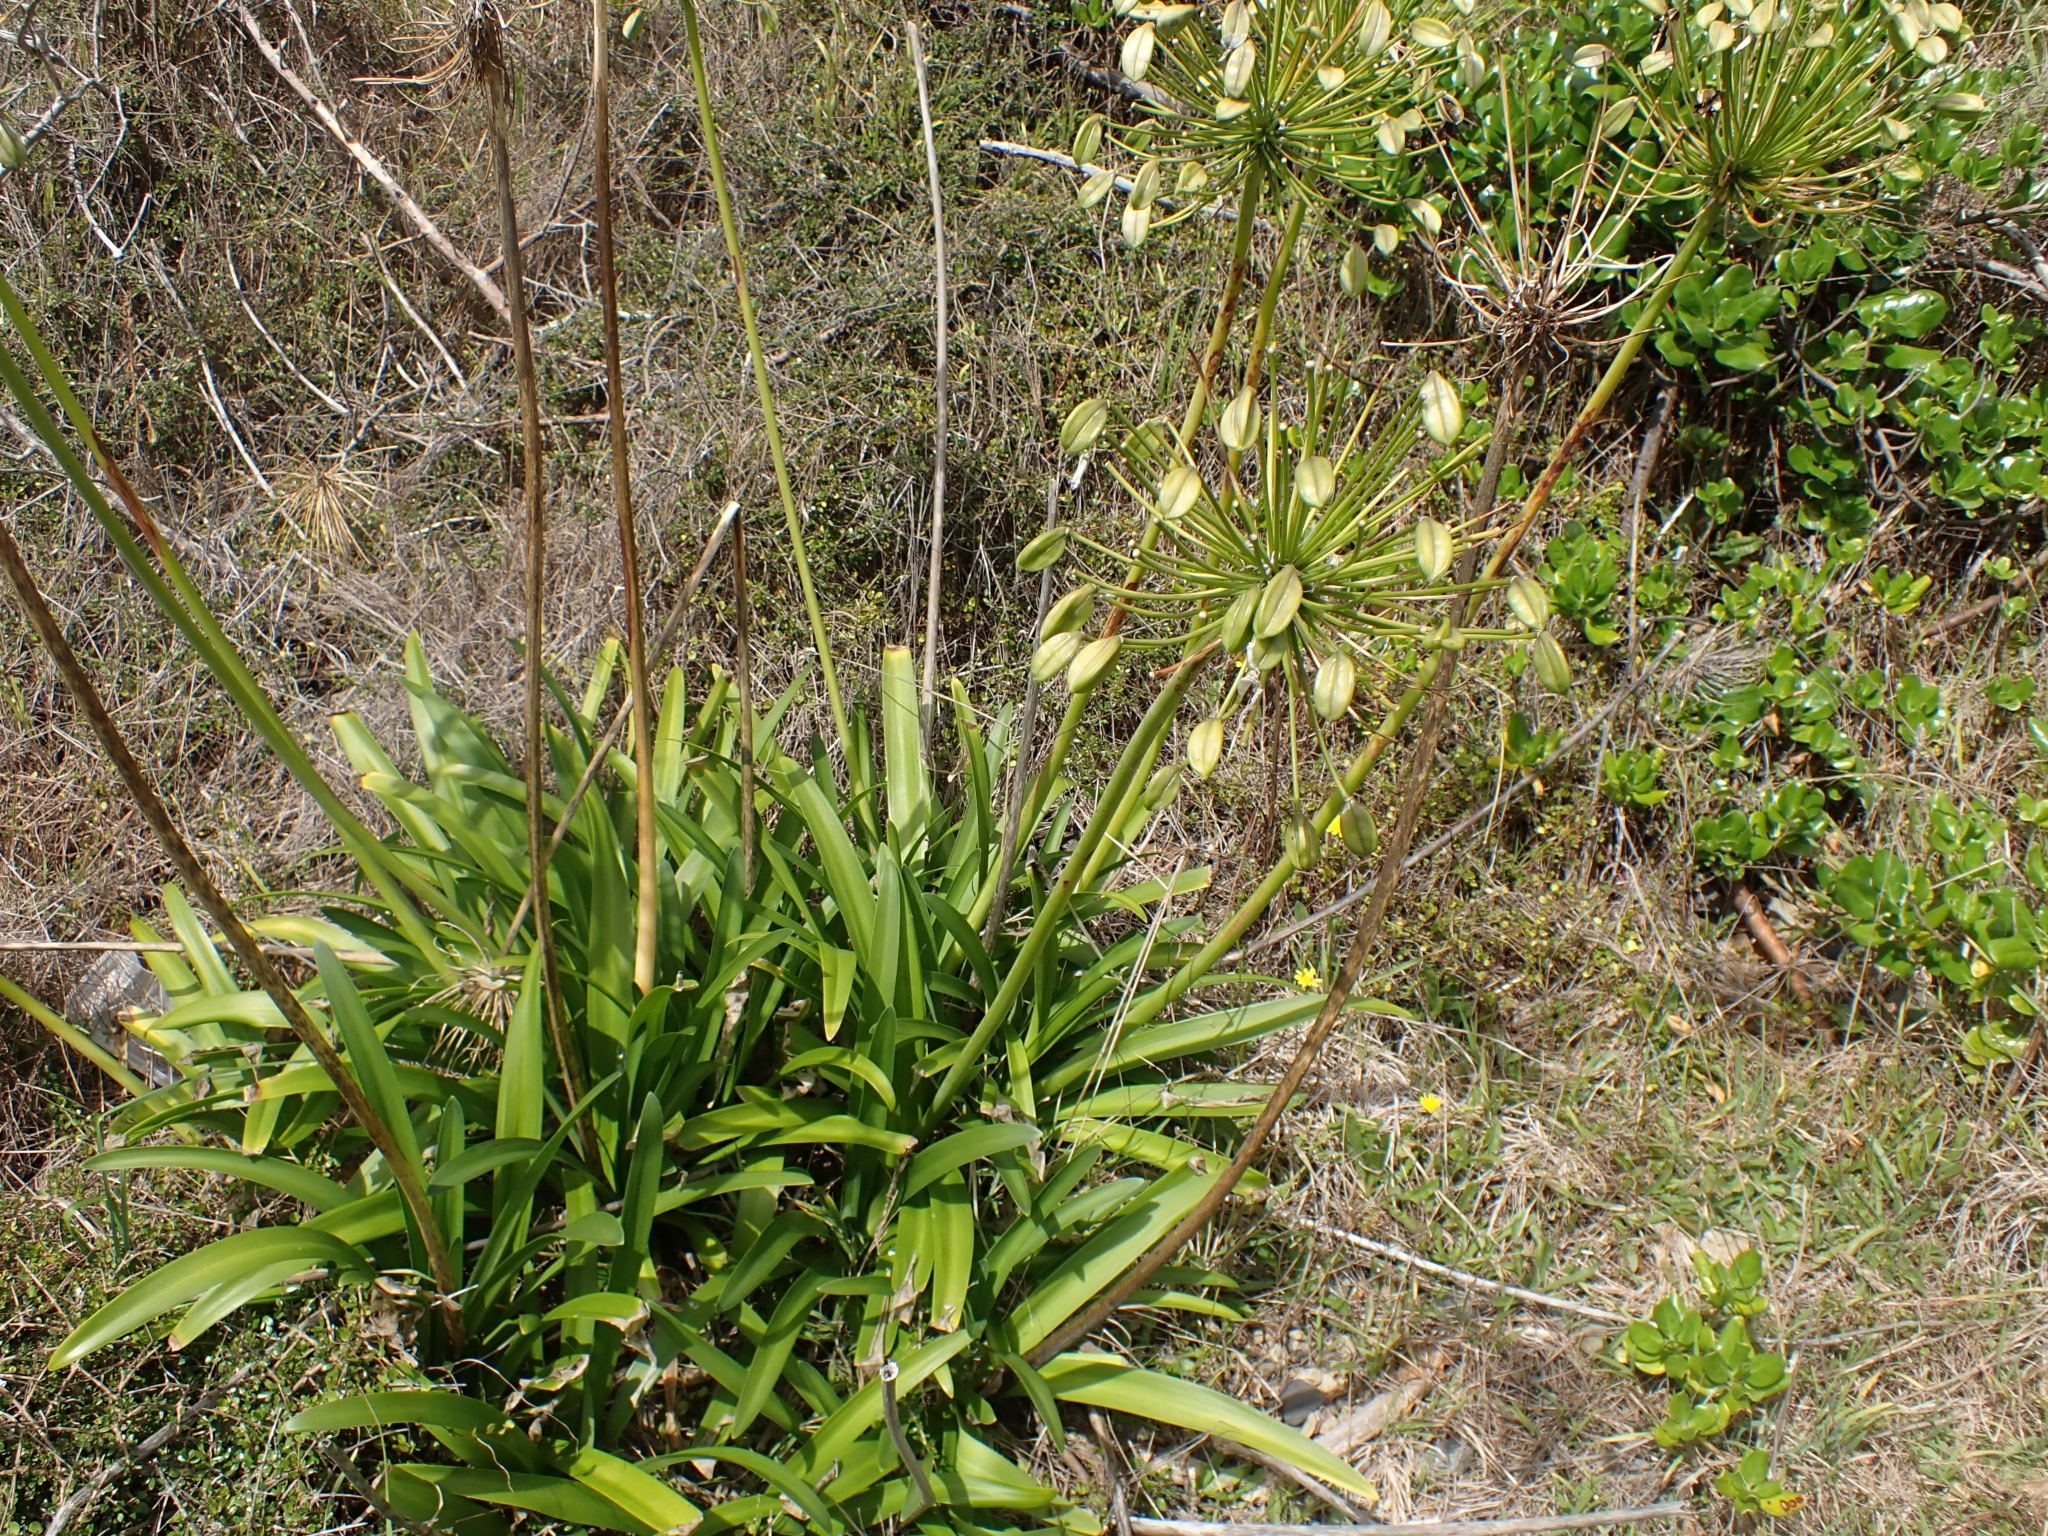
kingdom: Plantae
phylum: Tracheophyta
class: Liliopsida
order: Asparagales
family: Amaryllidaceae
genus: Agapanthus
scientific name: Agapanthus praecox
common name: African-lily
